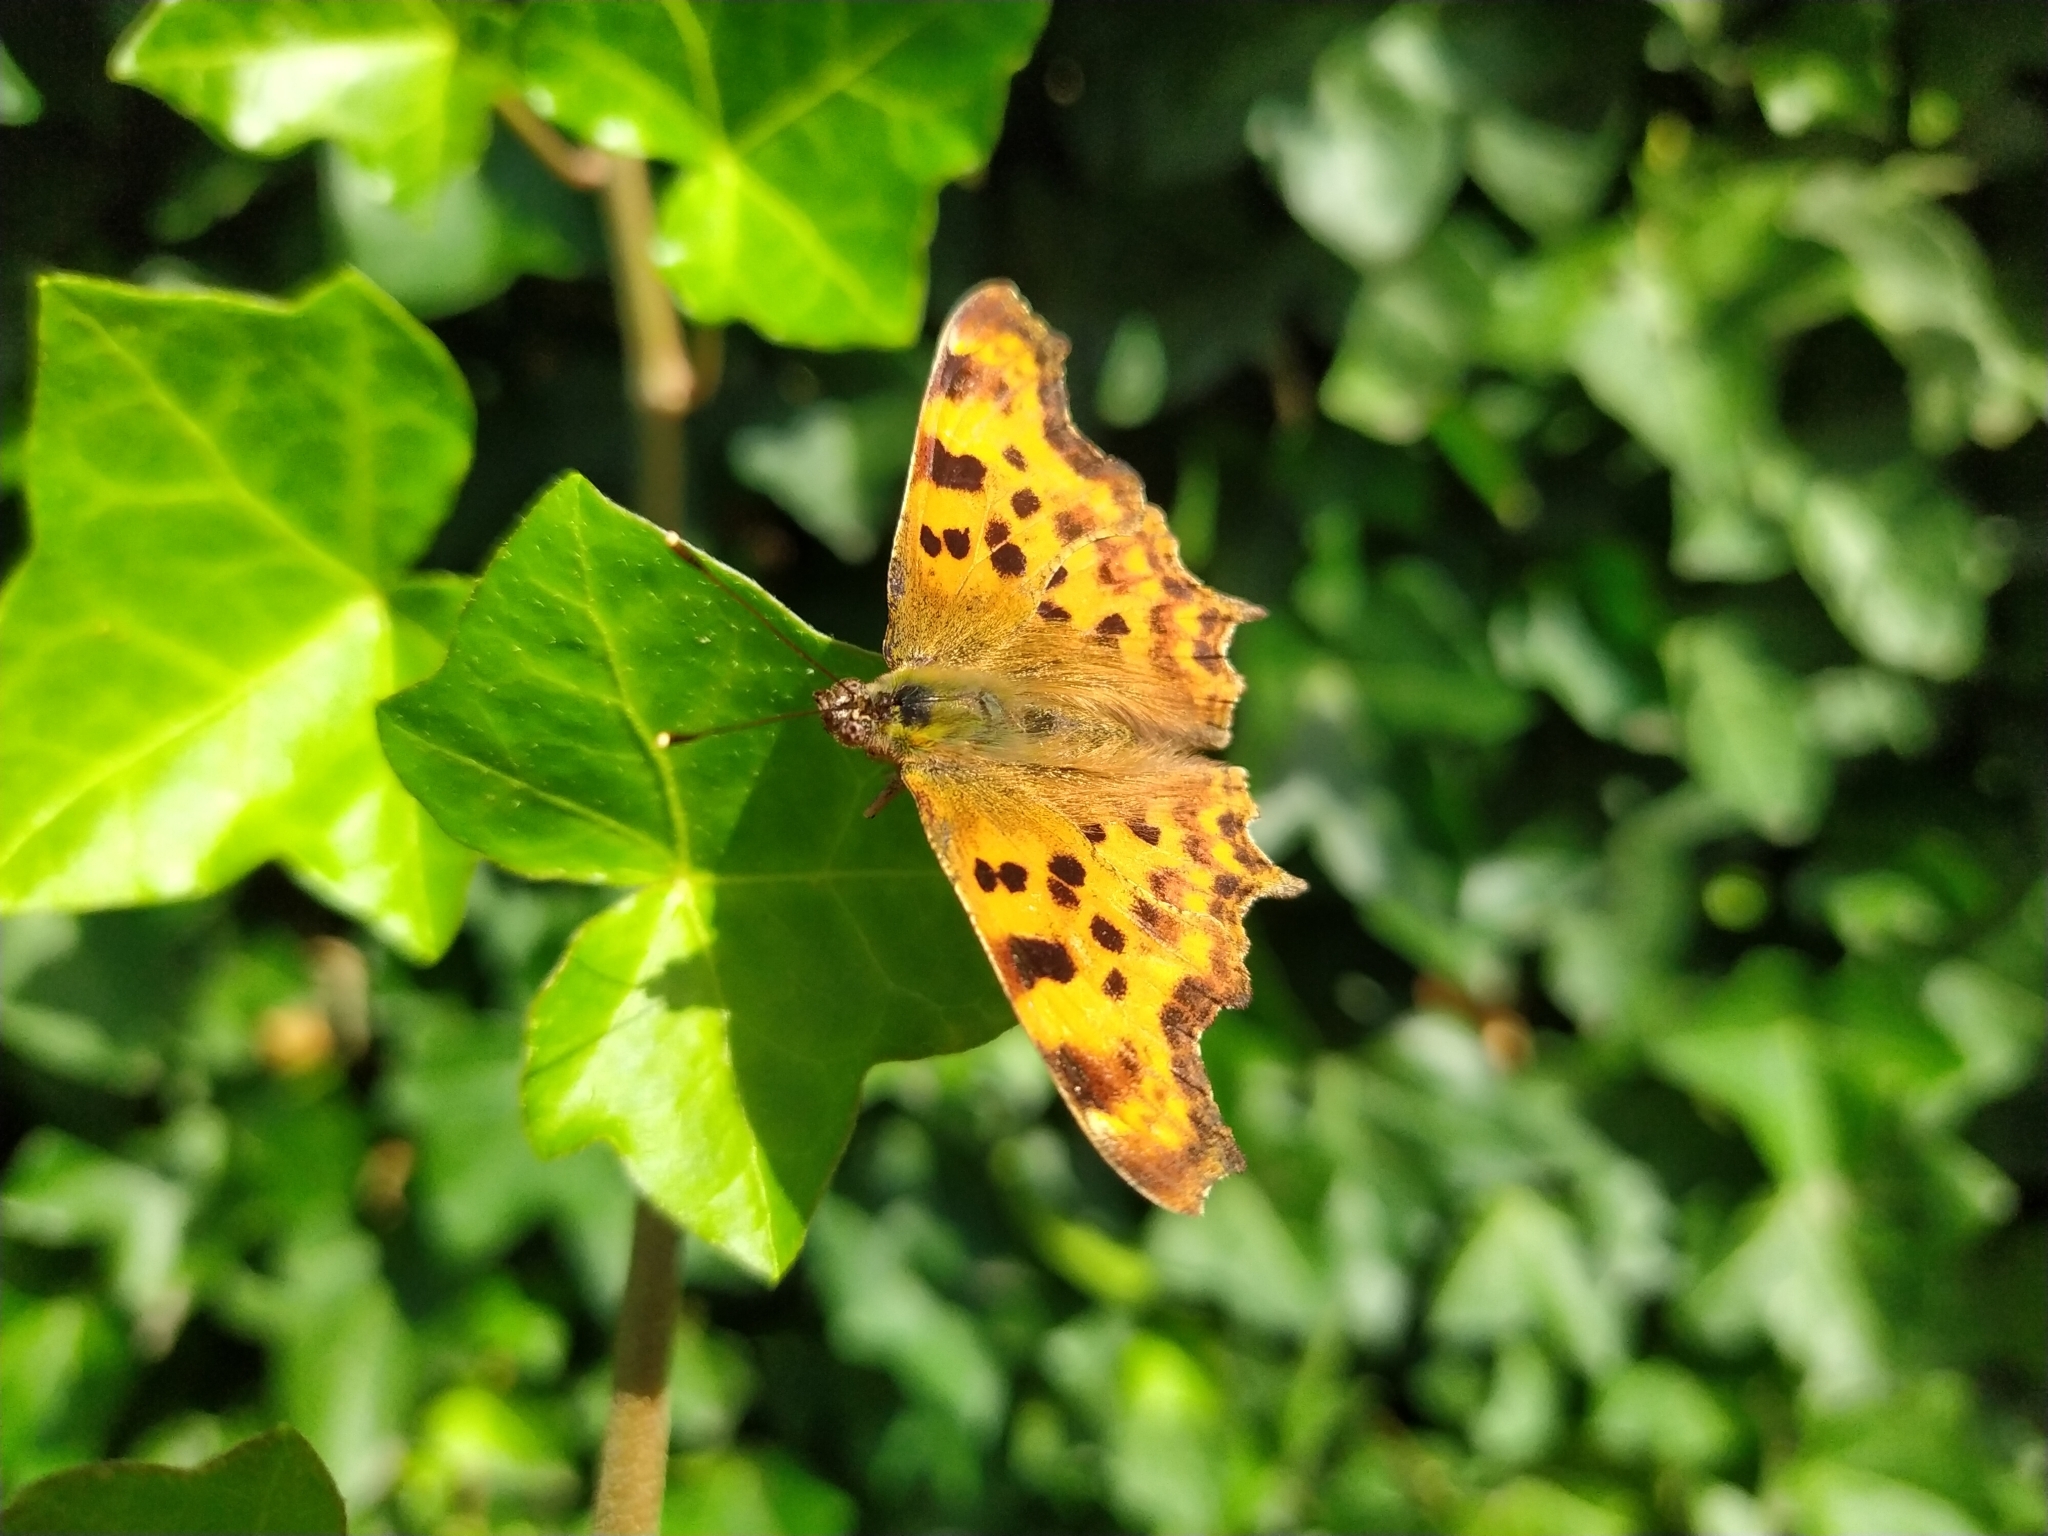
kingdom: Animalia
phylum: Arthropoda
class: Insecta
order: Lepidoptera
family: Nymphalidae
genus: Polygonia
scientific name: Polygonia c-album
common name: Comma
